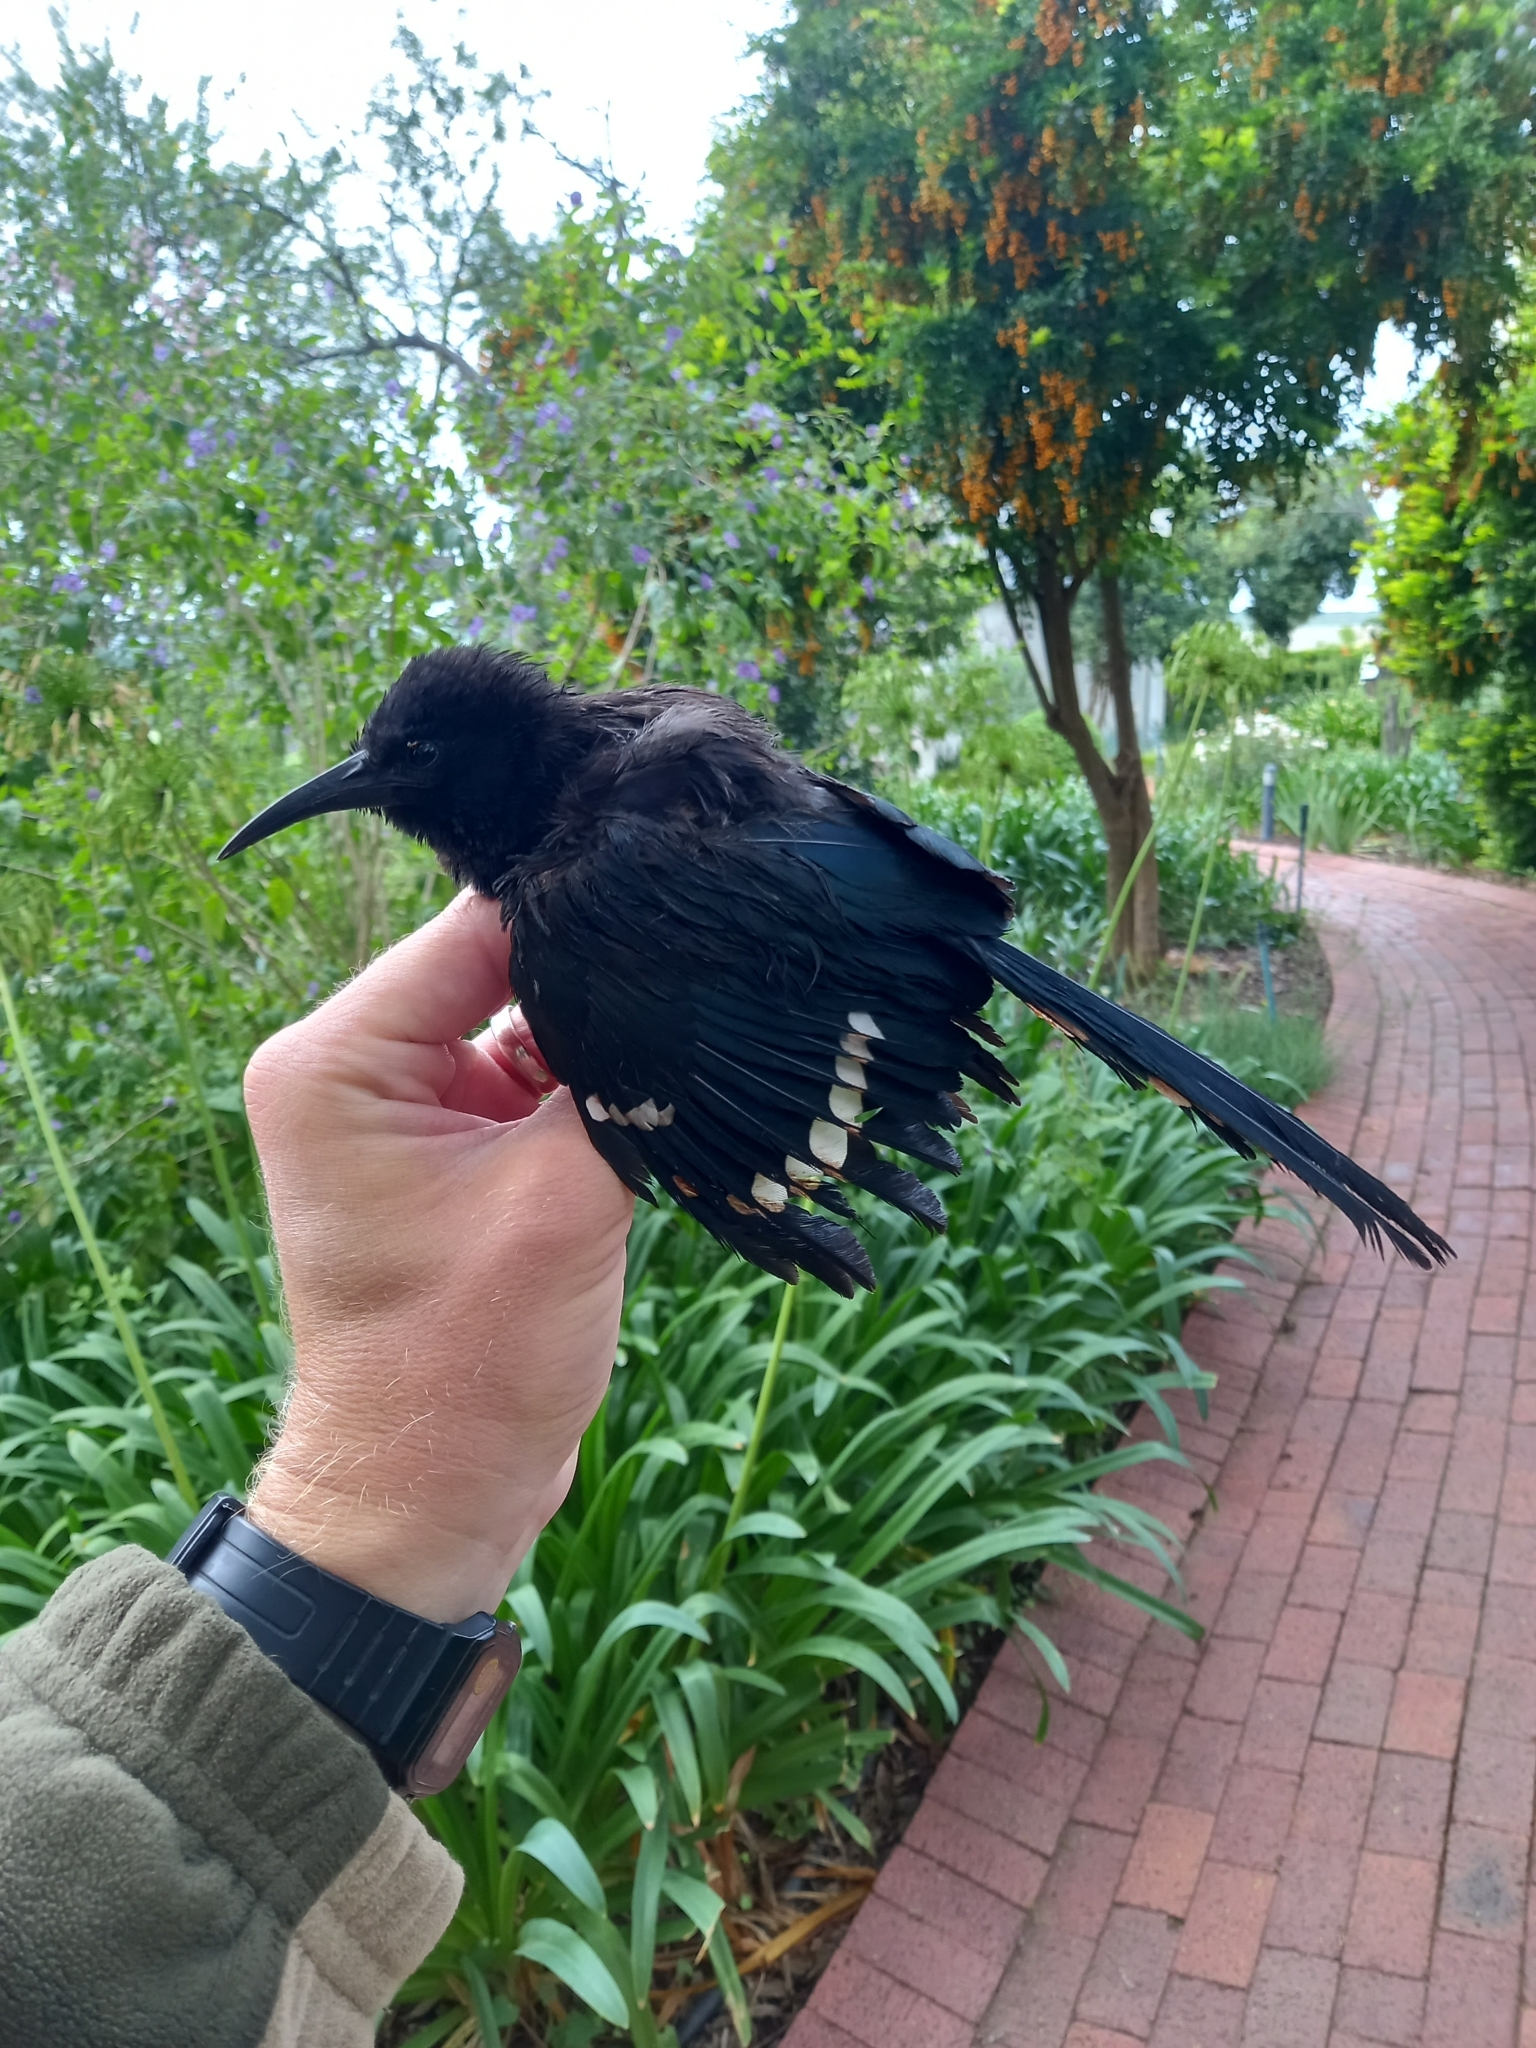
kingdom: Animalia
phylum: Chordata
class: Aves
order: Bucerotiformes
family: Phoeniculidae
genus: Phoeniculus
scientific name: Phoeniculus purpureus
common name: Green woodhoopoe
